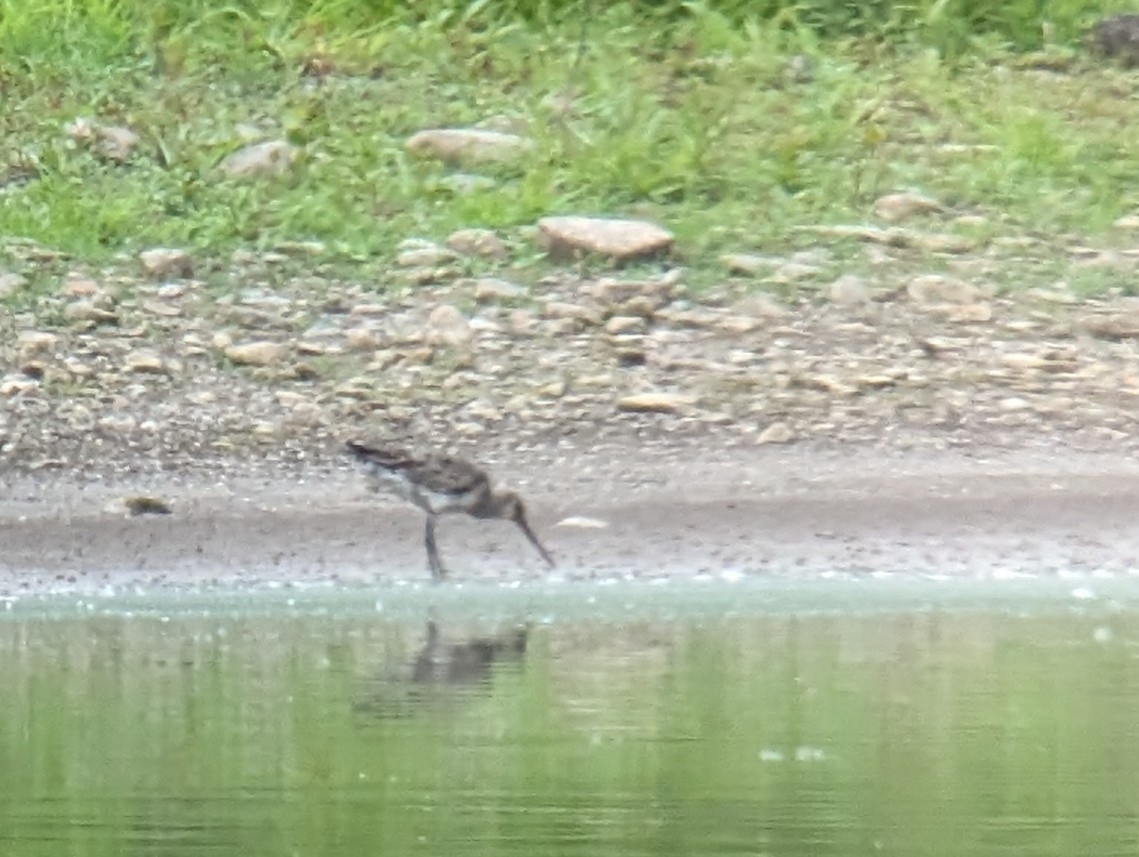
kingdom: Animalia
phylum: Chordata
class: Aves
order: Charadriiformes
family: Scolopacidae
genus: Limosa
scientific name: Limosa haemastica
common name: Hudsonian godwit
